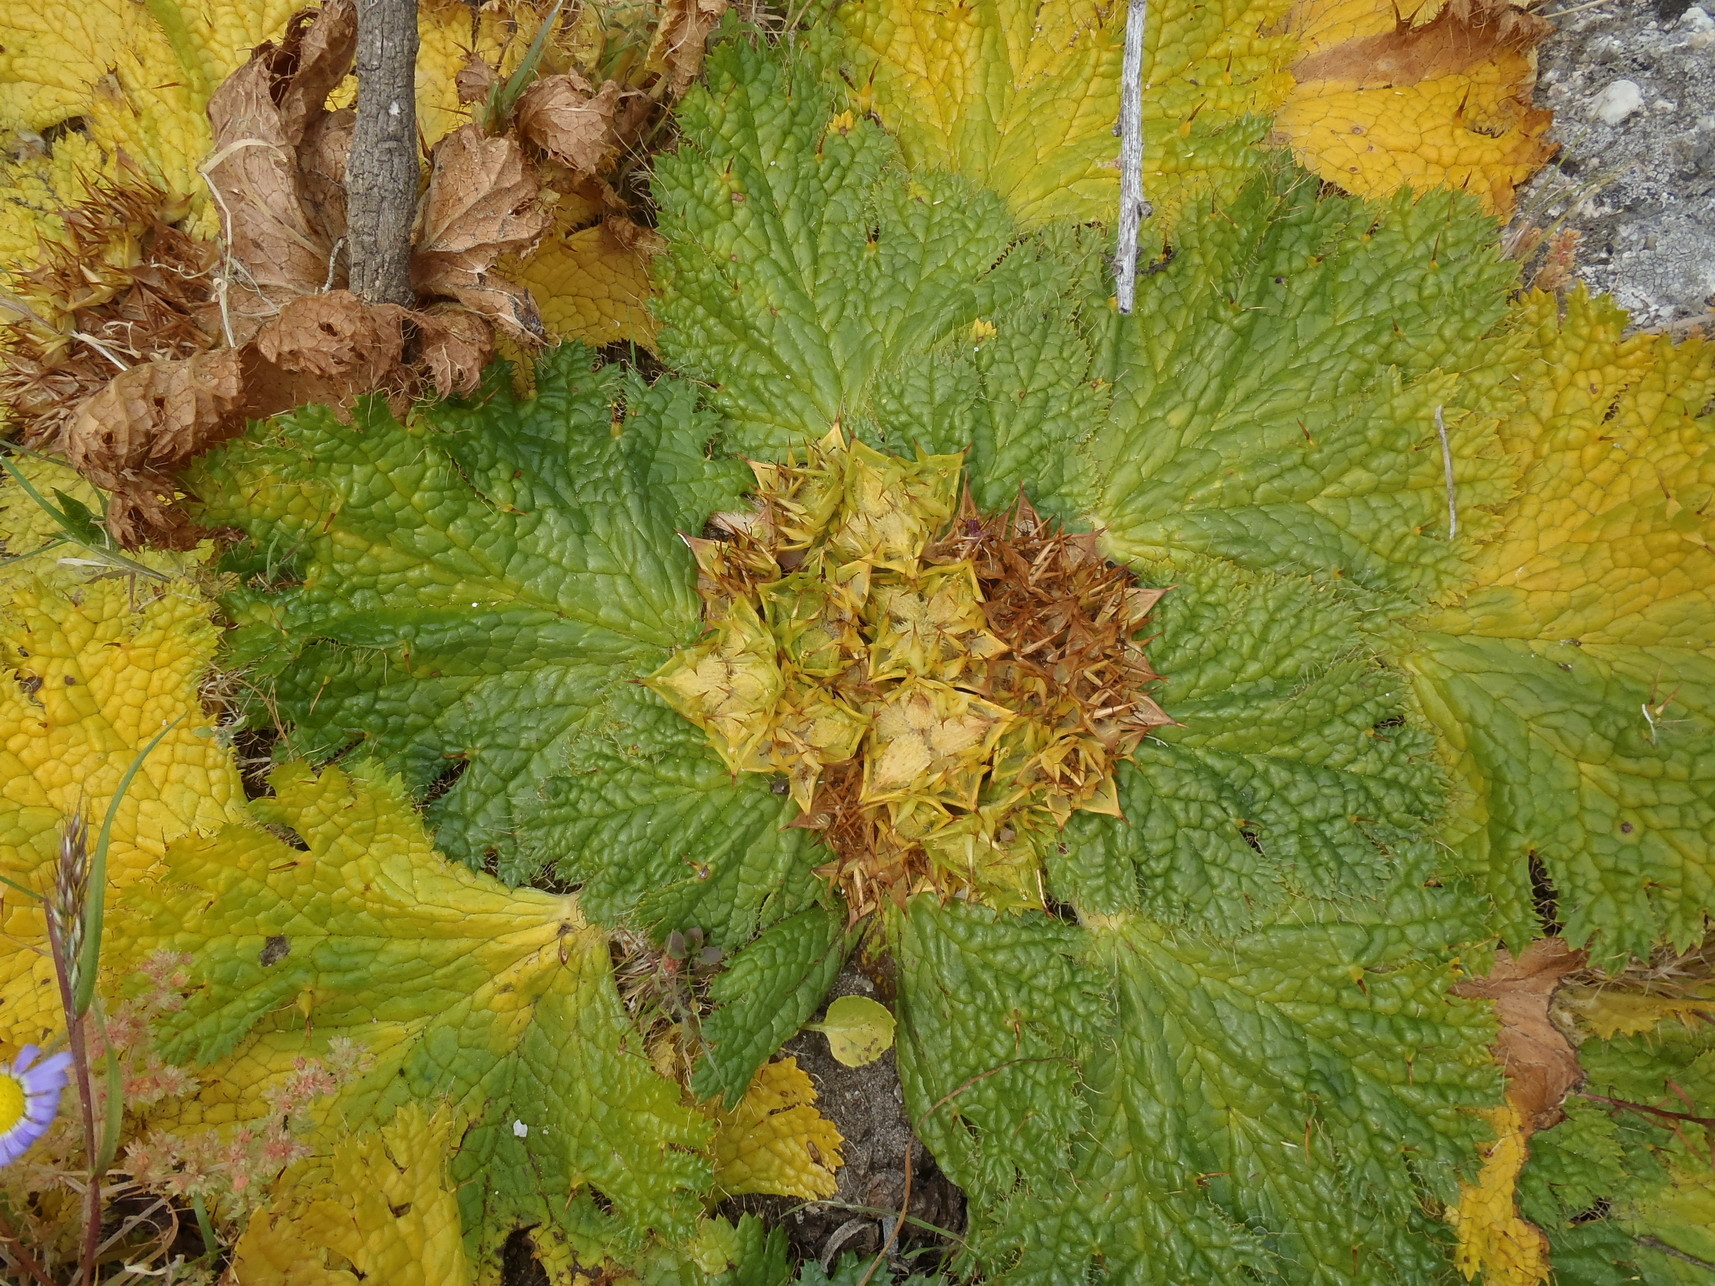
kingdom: Plantae
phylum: Tracheophyta
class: Magnoliopsida
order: Apiales
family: Apiaceae
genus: Arctopus
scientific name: Arctopus echinatus
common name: Platdoring
